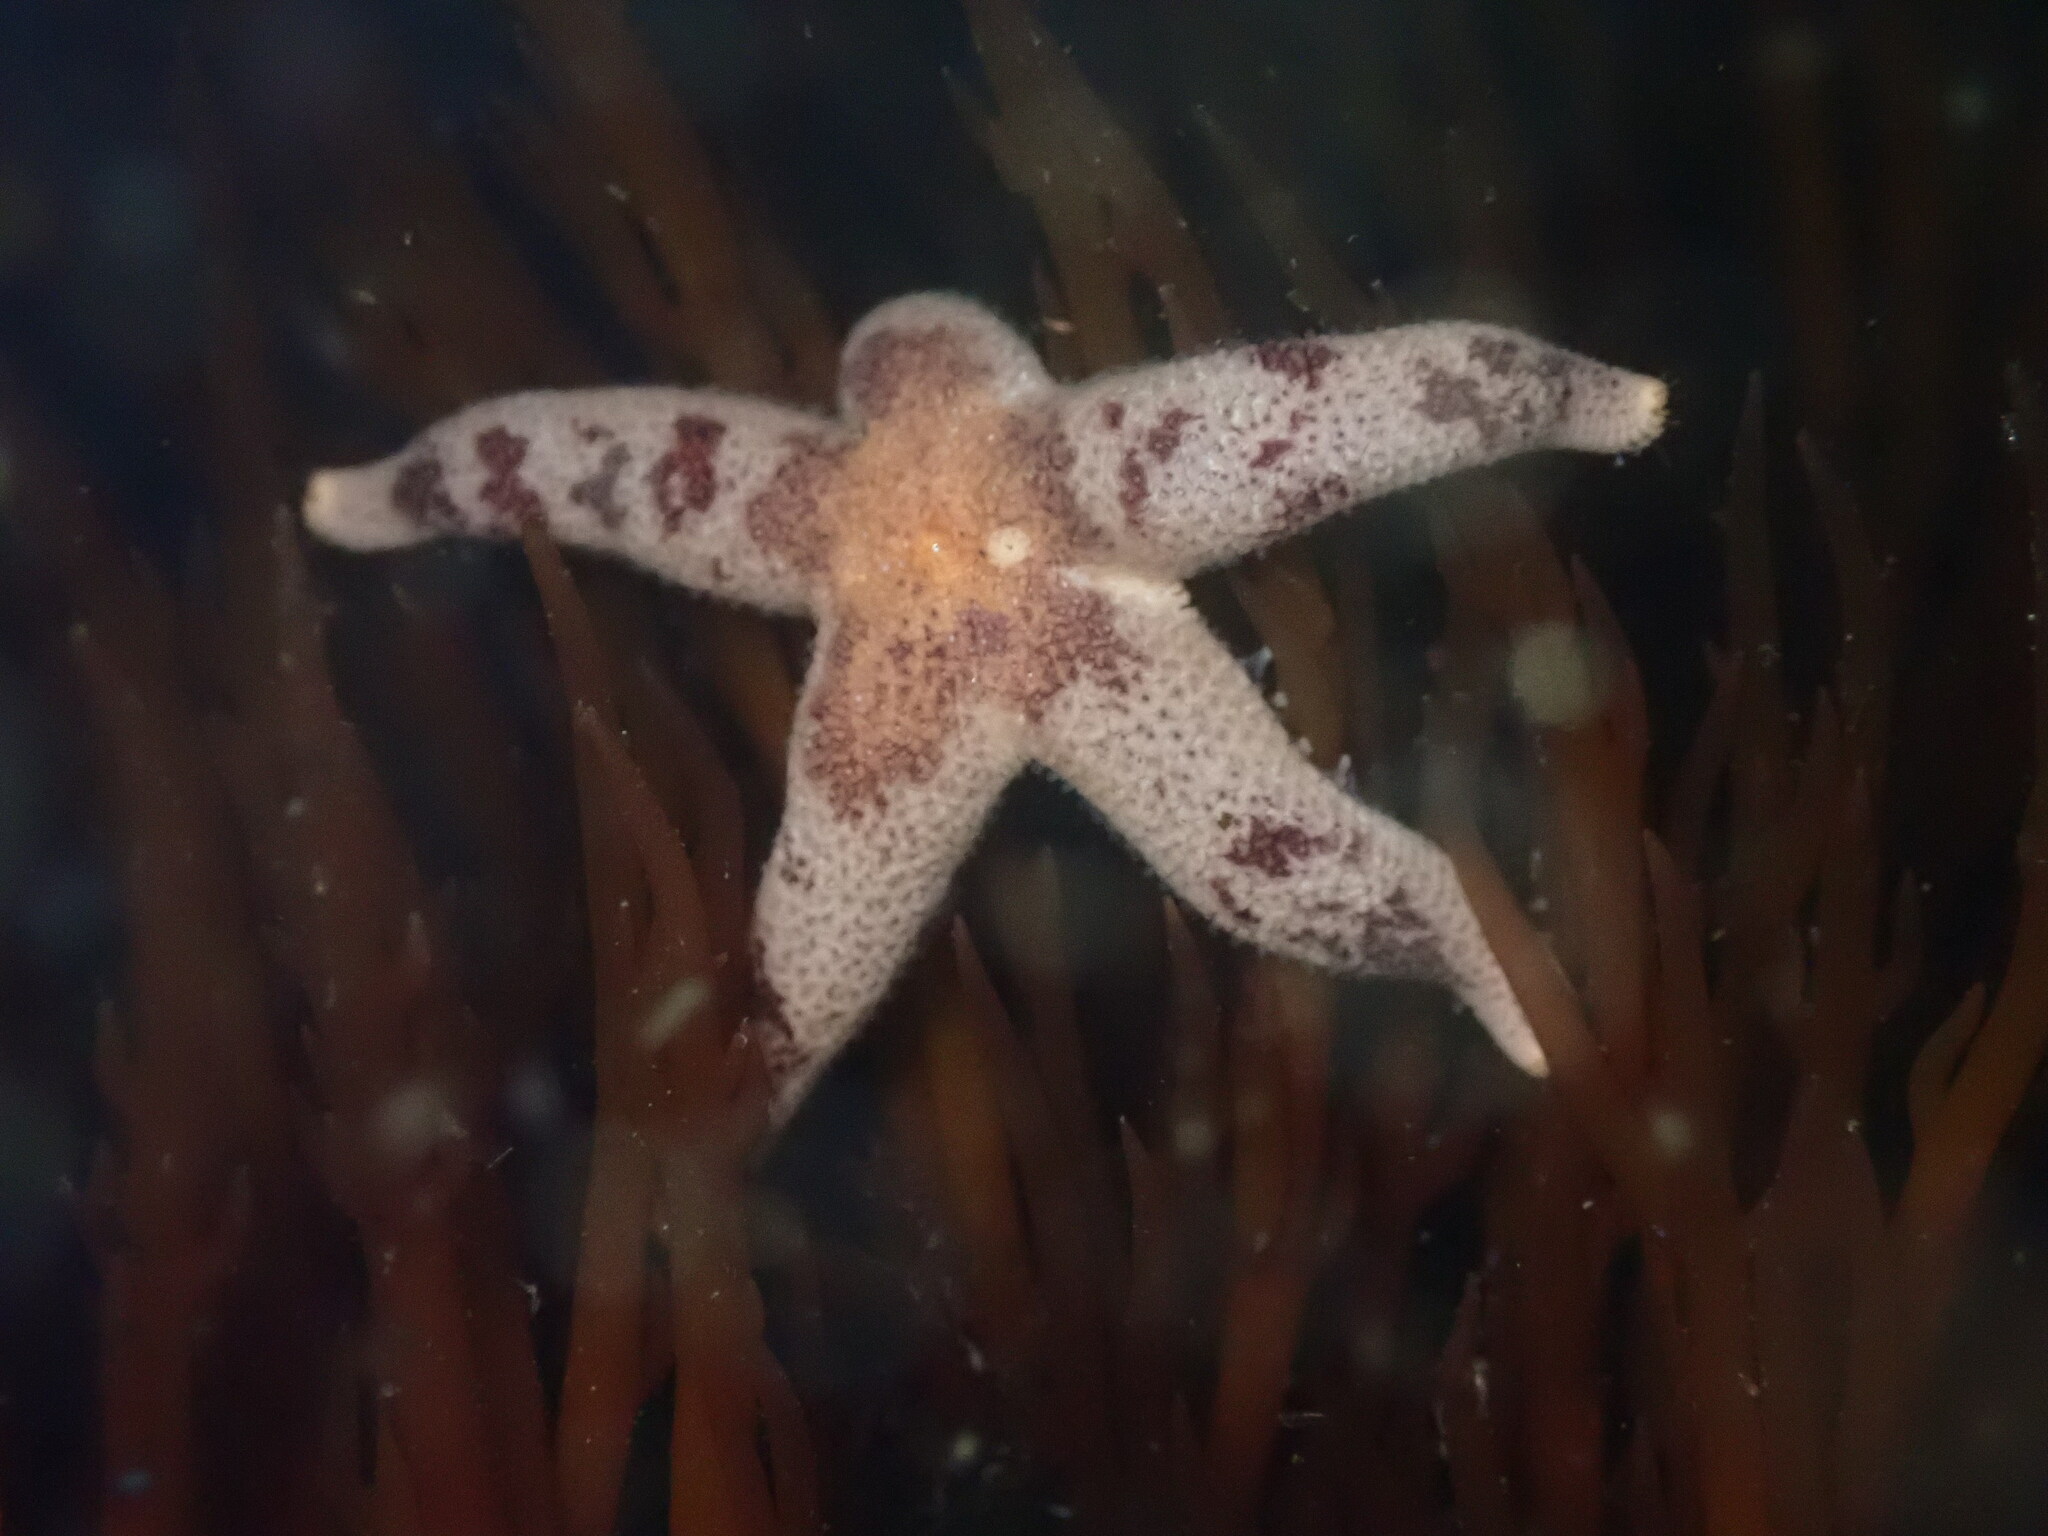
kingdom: Animalia
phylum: Echinodermata
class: Asteroidea
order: Spinulosida
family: Echinasteridae
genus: Henricia
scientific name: Henricia pumila
